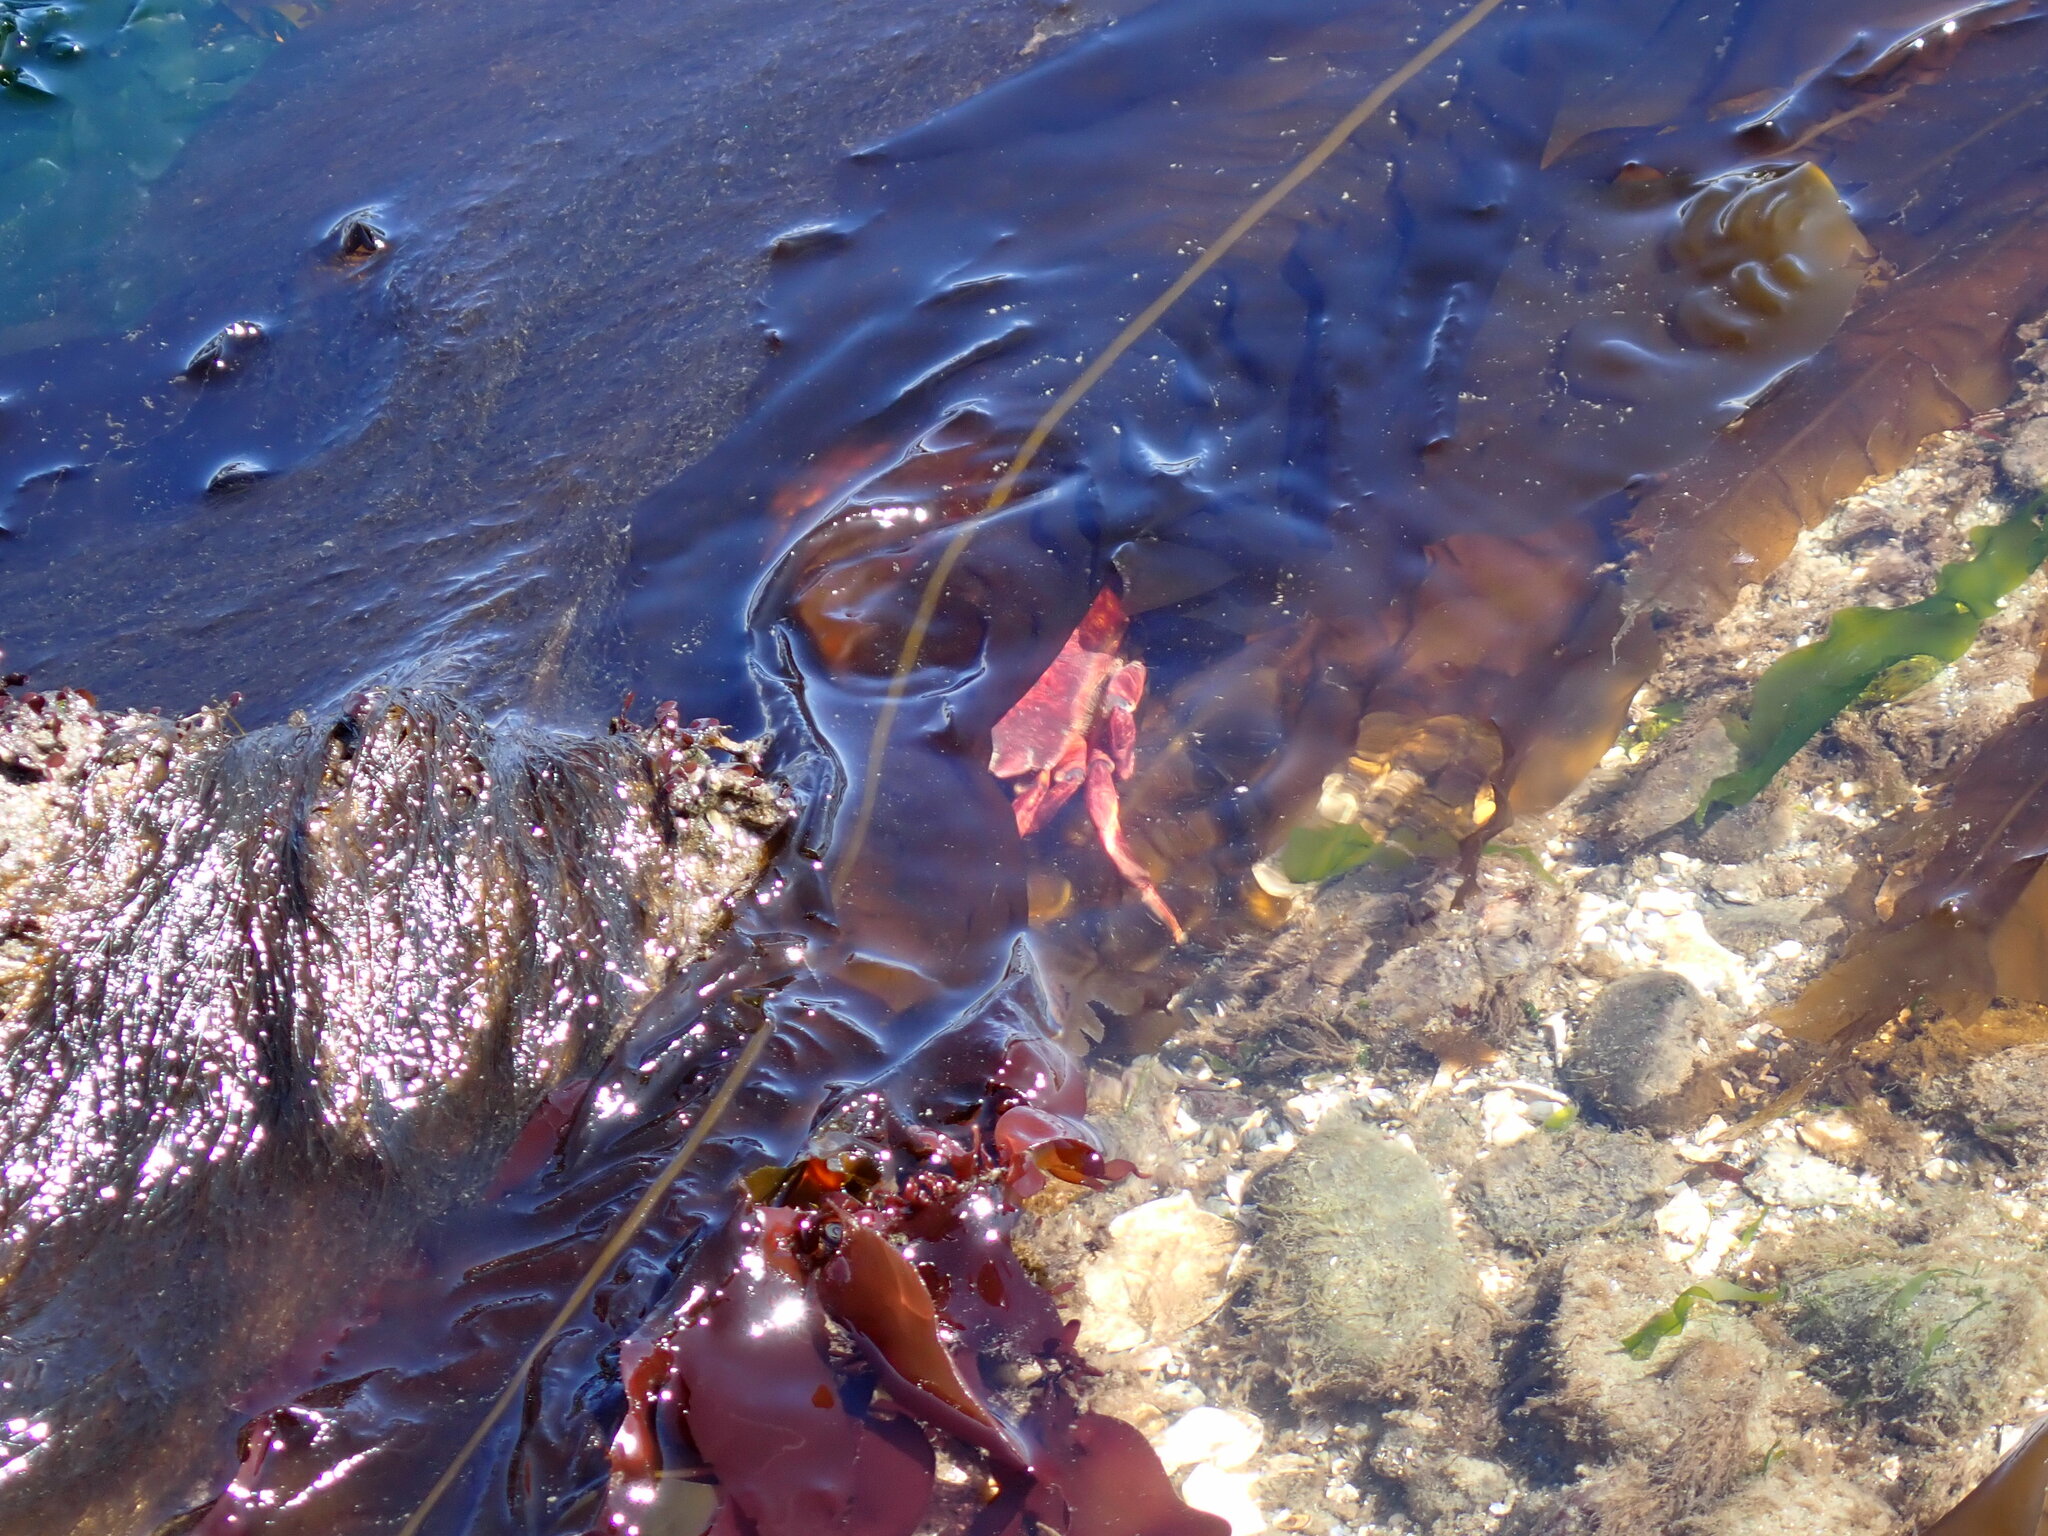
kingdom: Animalia
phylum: Arthropoda
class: Malacostraca
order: Decapoda
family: Cancridae
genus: Cancer
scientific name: Cancer productus
